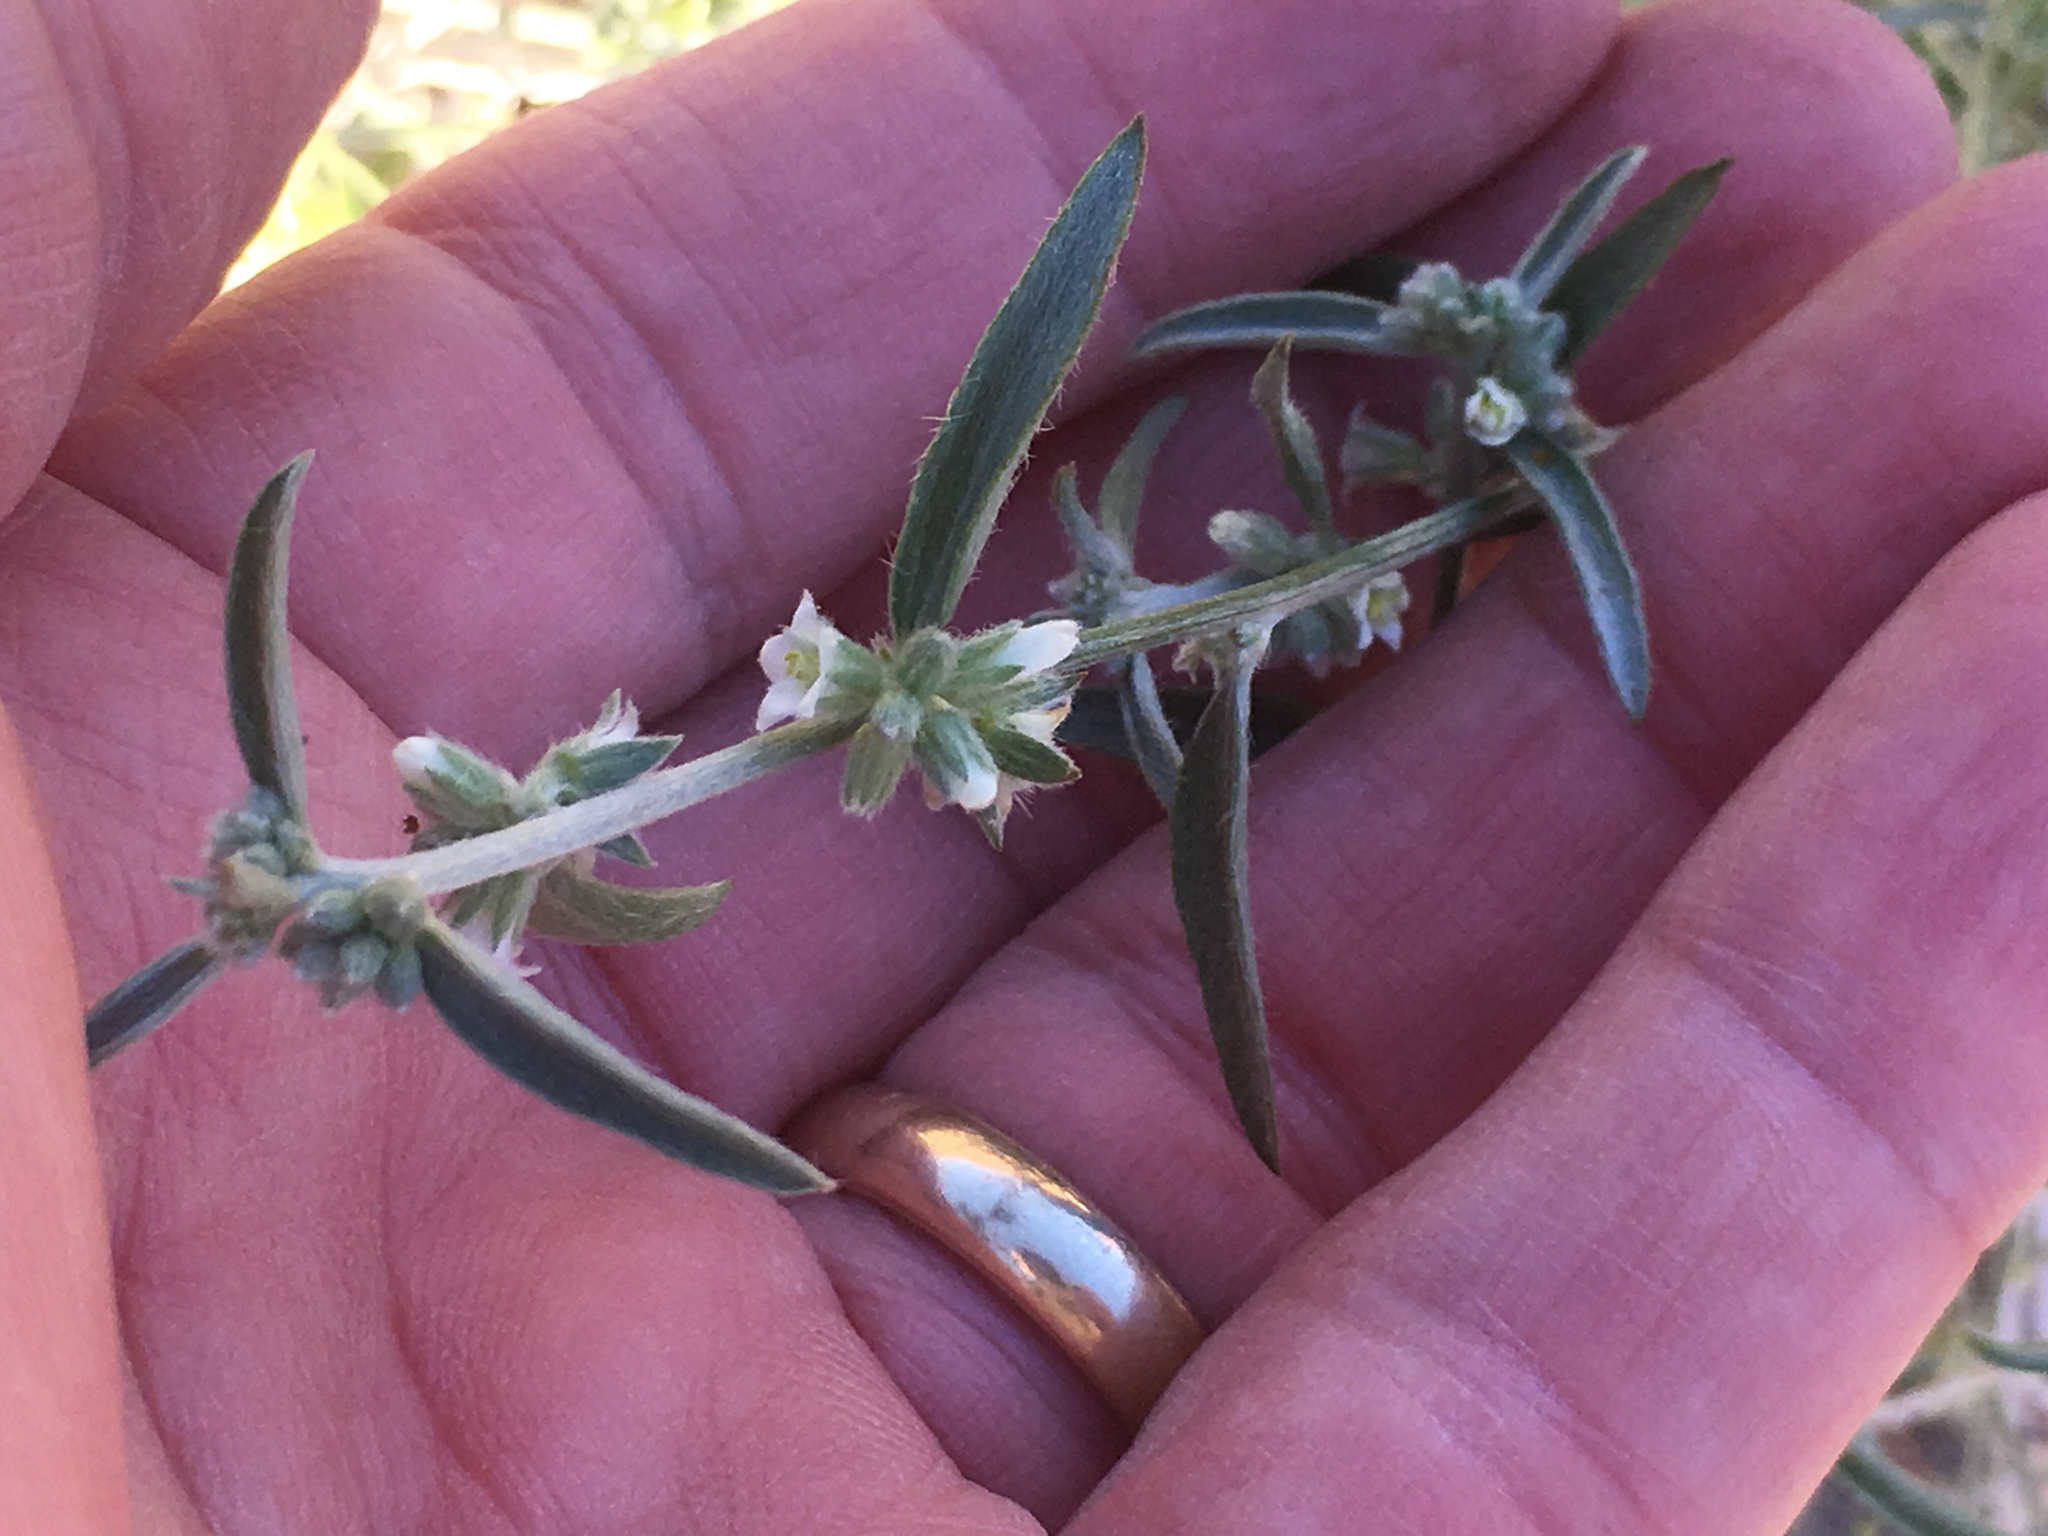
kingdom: Plantae
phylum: Tracheophyta
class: Magnoliopsida
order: Malpighiales
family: Euphorbiaceae
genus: Ditaxis
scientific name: Ditaxis lanceolata
